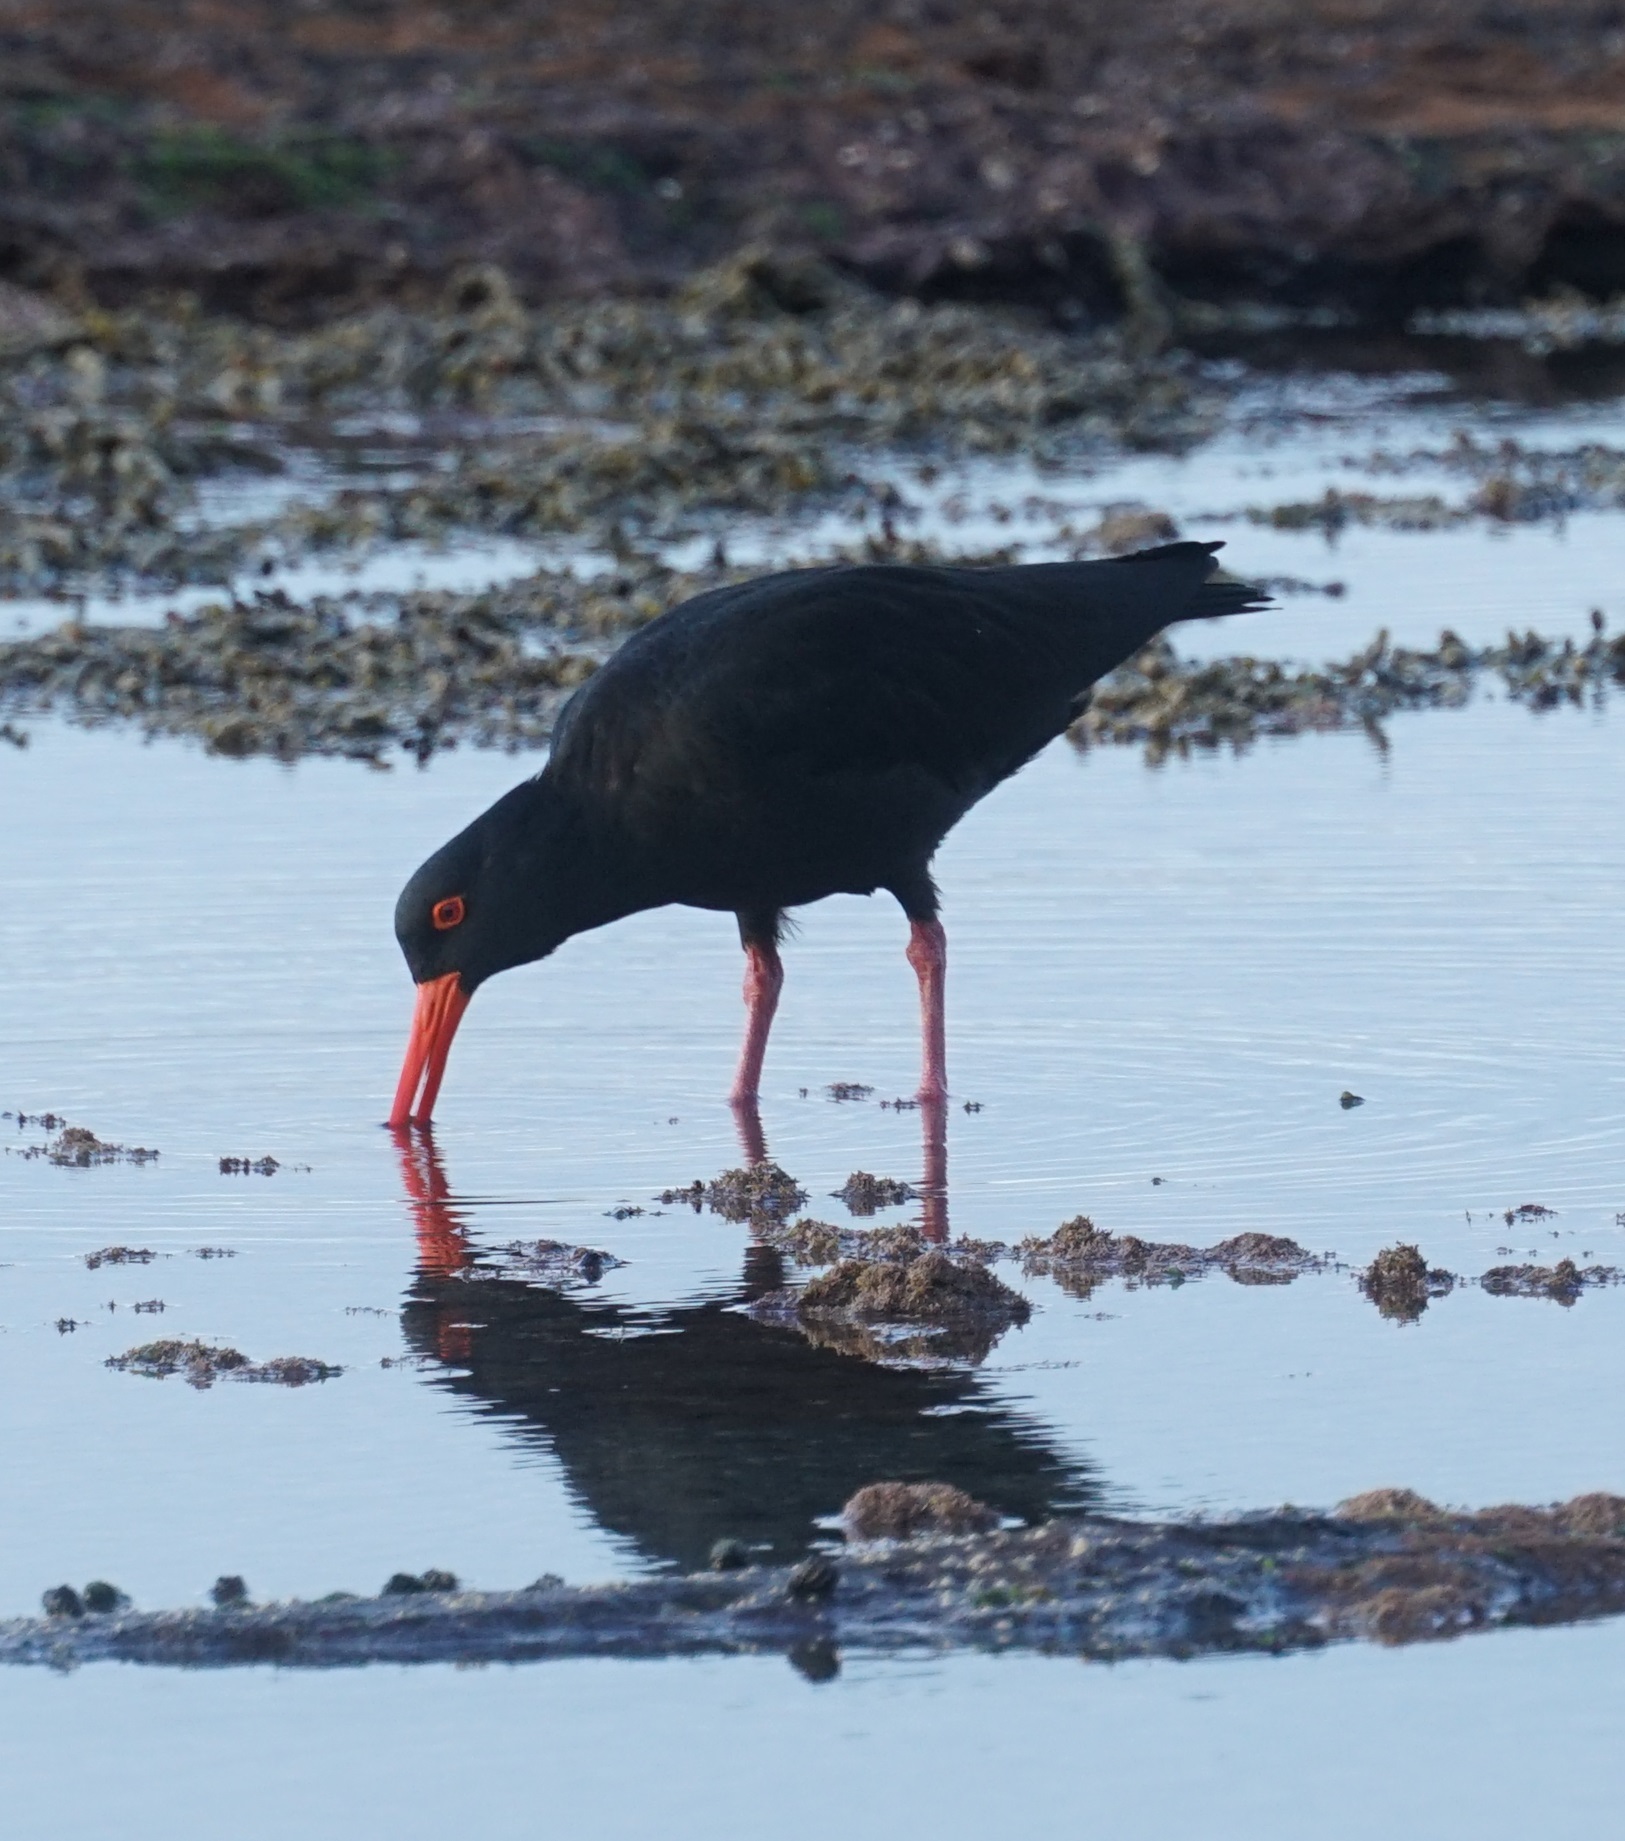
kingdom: Animalia
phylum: Chordata
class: Aves
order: Charadriiformes
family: Haematopodidae
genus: Haematopus
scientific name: Haematopus fuliginosus
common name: Sooty oystercatcher
